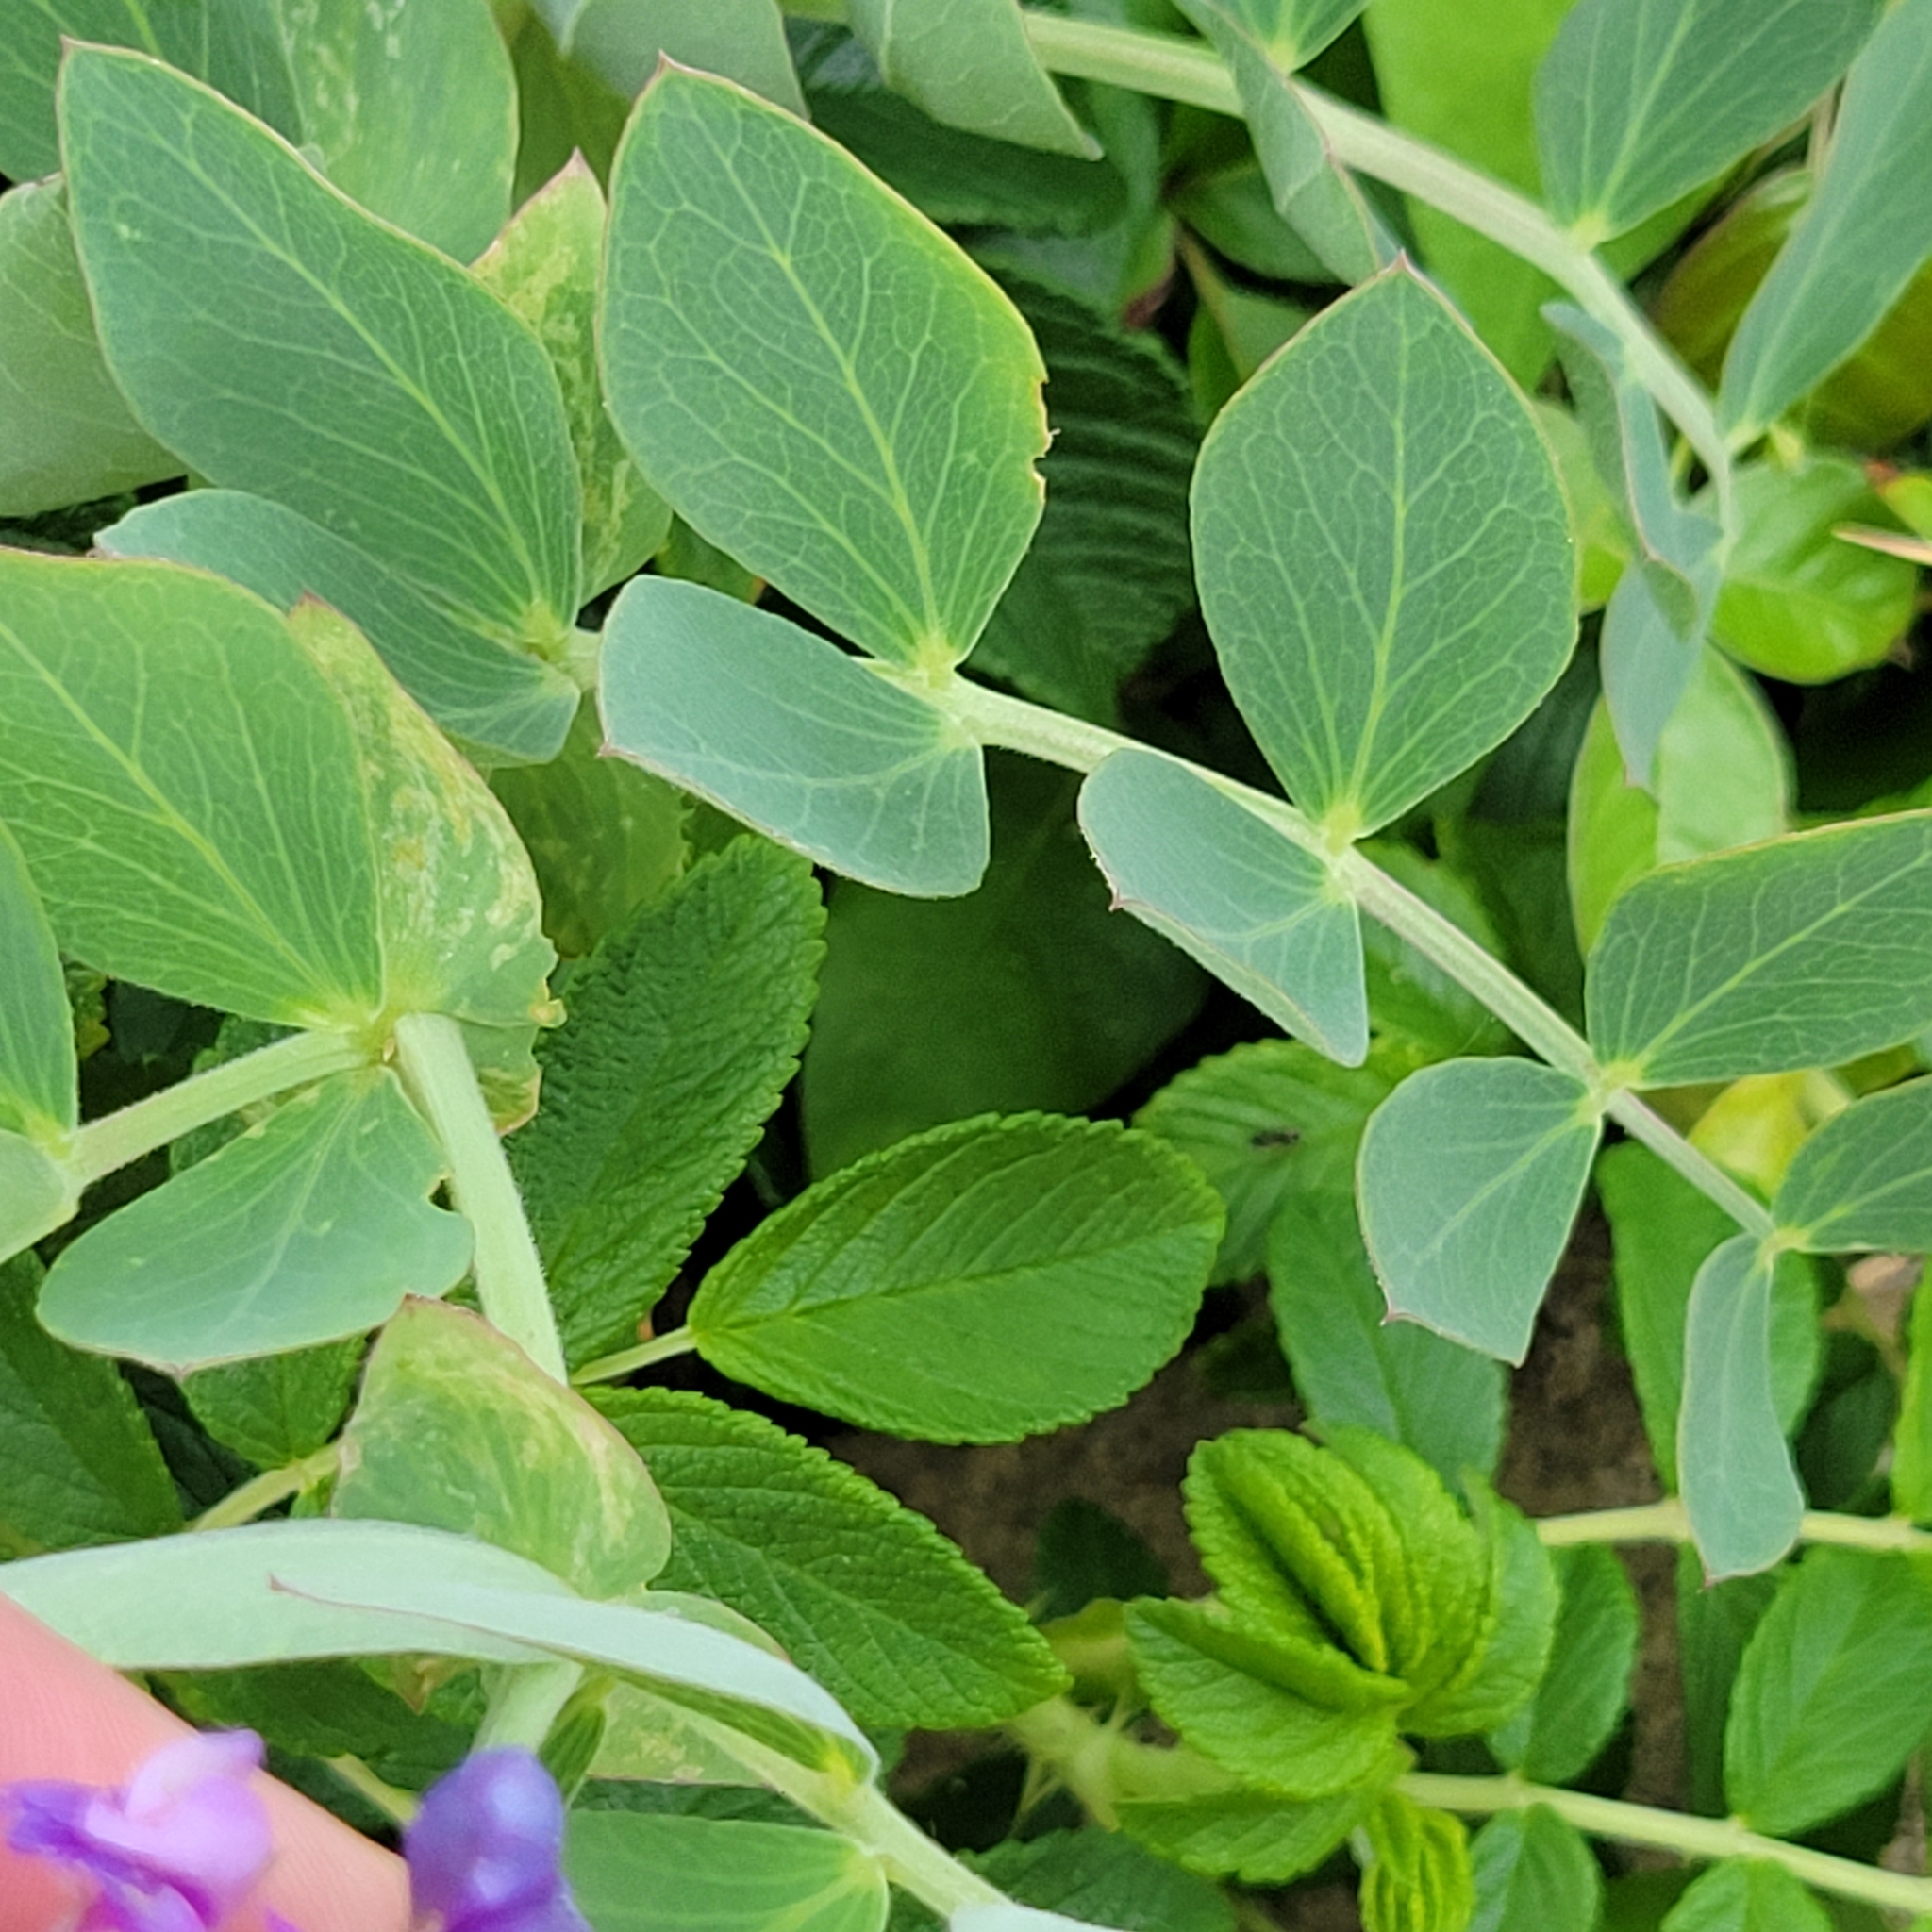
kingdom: Plantae
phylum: Tracheophyta
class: Magnoliopsida
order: Fabales
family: Fabaceae
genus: Lathyrus
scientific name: Lathyrus japonicus
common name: Sea pea
